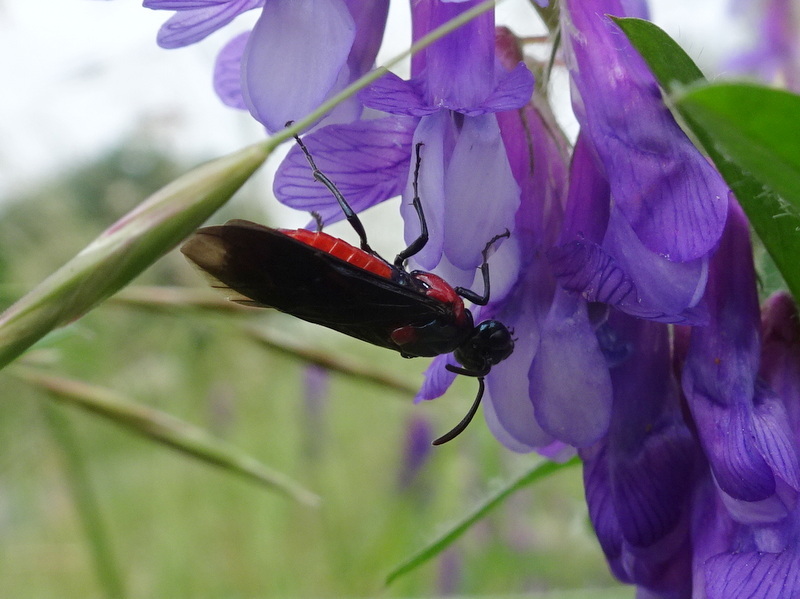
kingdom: Animalia
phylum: Arthropoda
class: Insecta
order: Hymenoptera
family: Argidae
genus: Arge
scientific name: Arge humeralis
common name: Poison ivy sawfly
